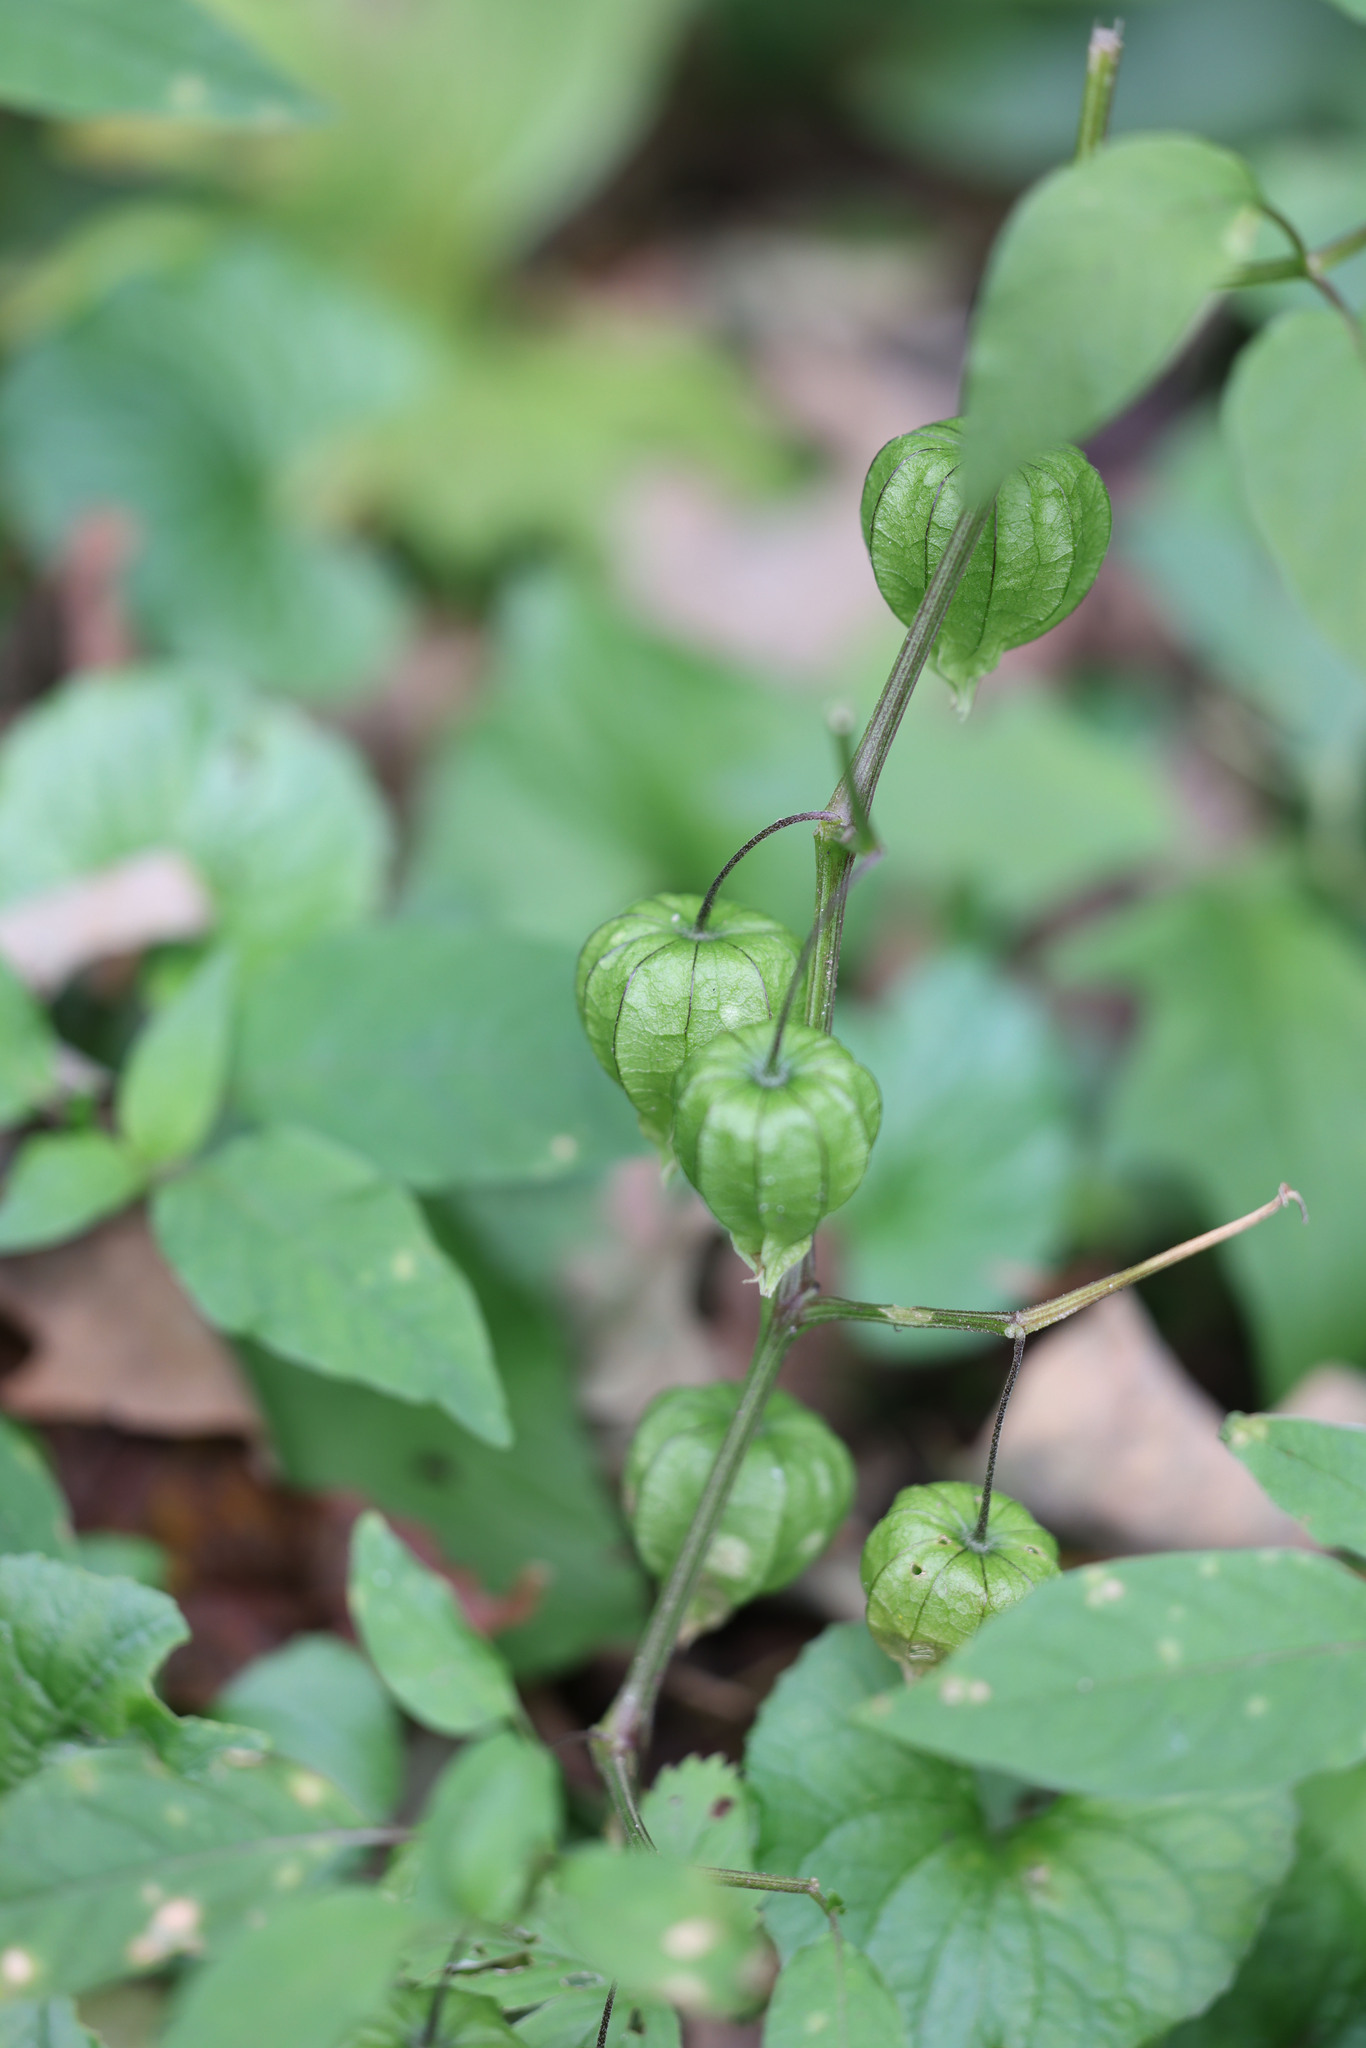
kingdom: Plantae
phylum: Tracheophyta
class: Magnoliopsida
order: Solanales
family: Solanaceae
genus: Physalis
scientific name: Physalis longifolia
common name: Common ground-cherry
